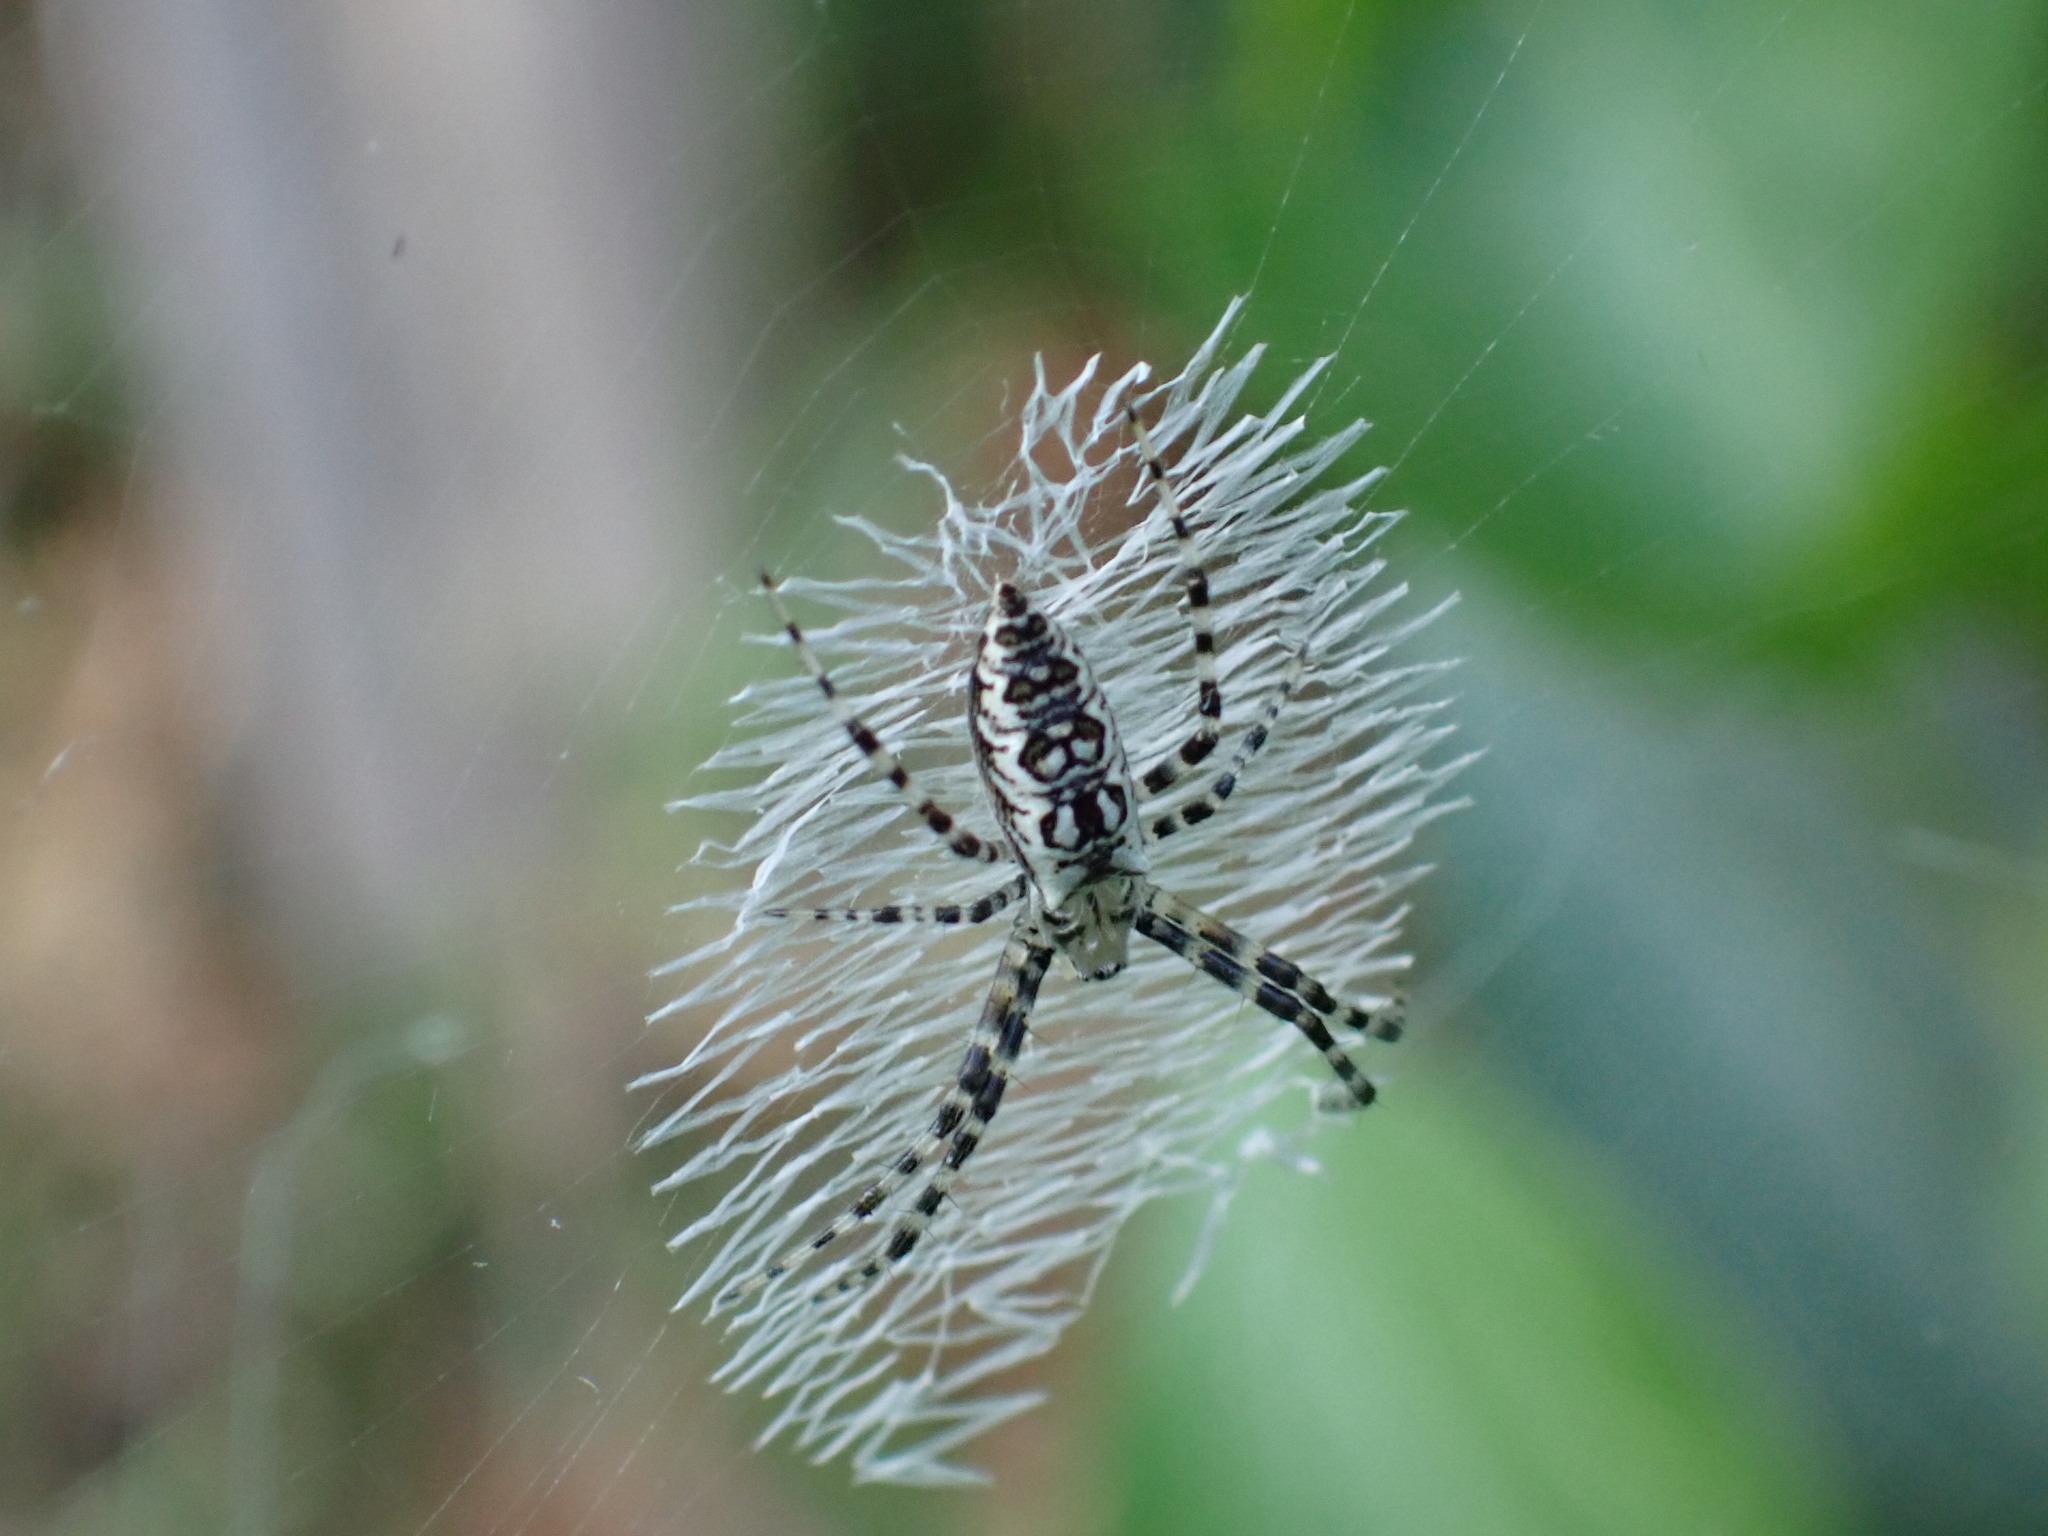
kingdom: Animalia
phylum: Arthropoda
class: Arachnida
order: Araneae
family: Araneidae
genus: Argiope
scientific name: Argiope aurantia
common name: Orb weavers
